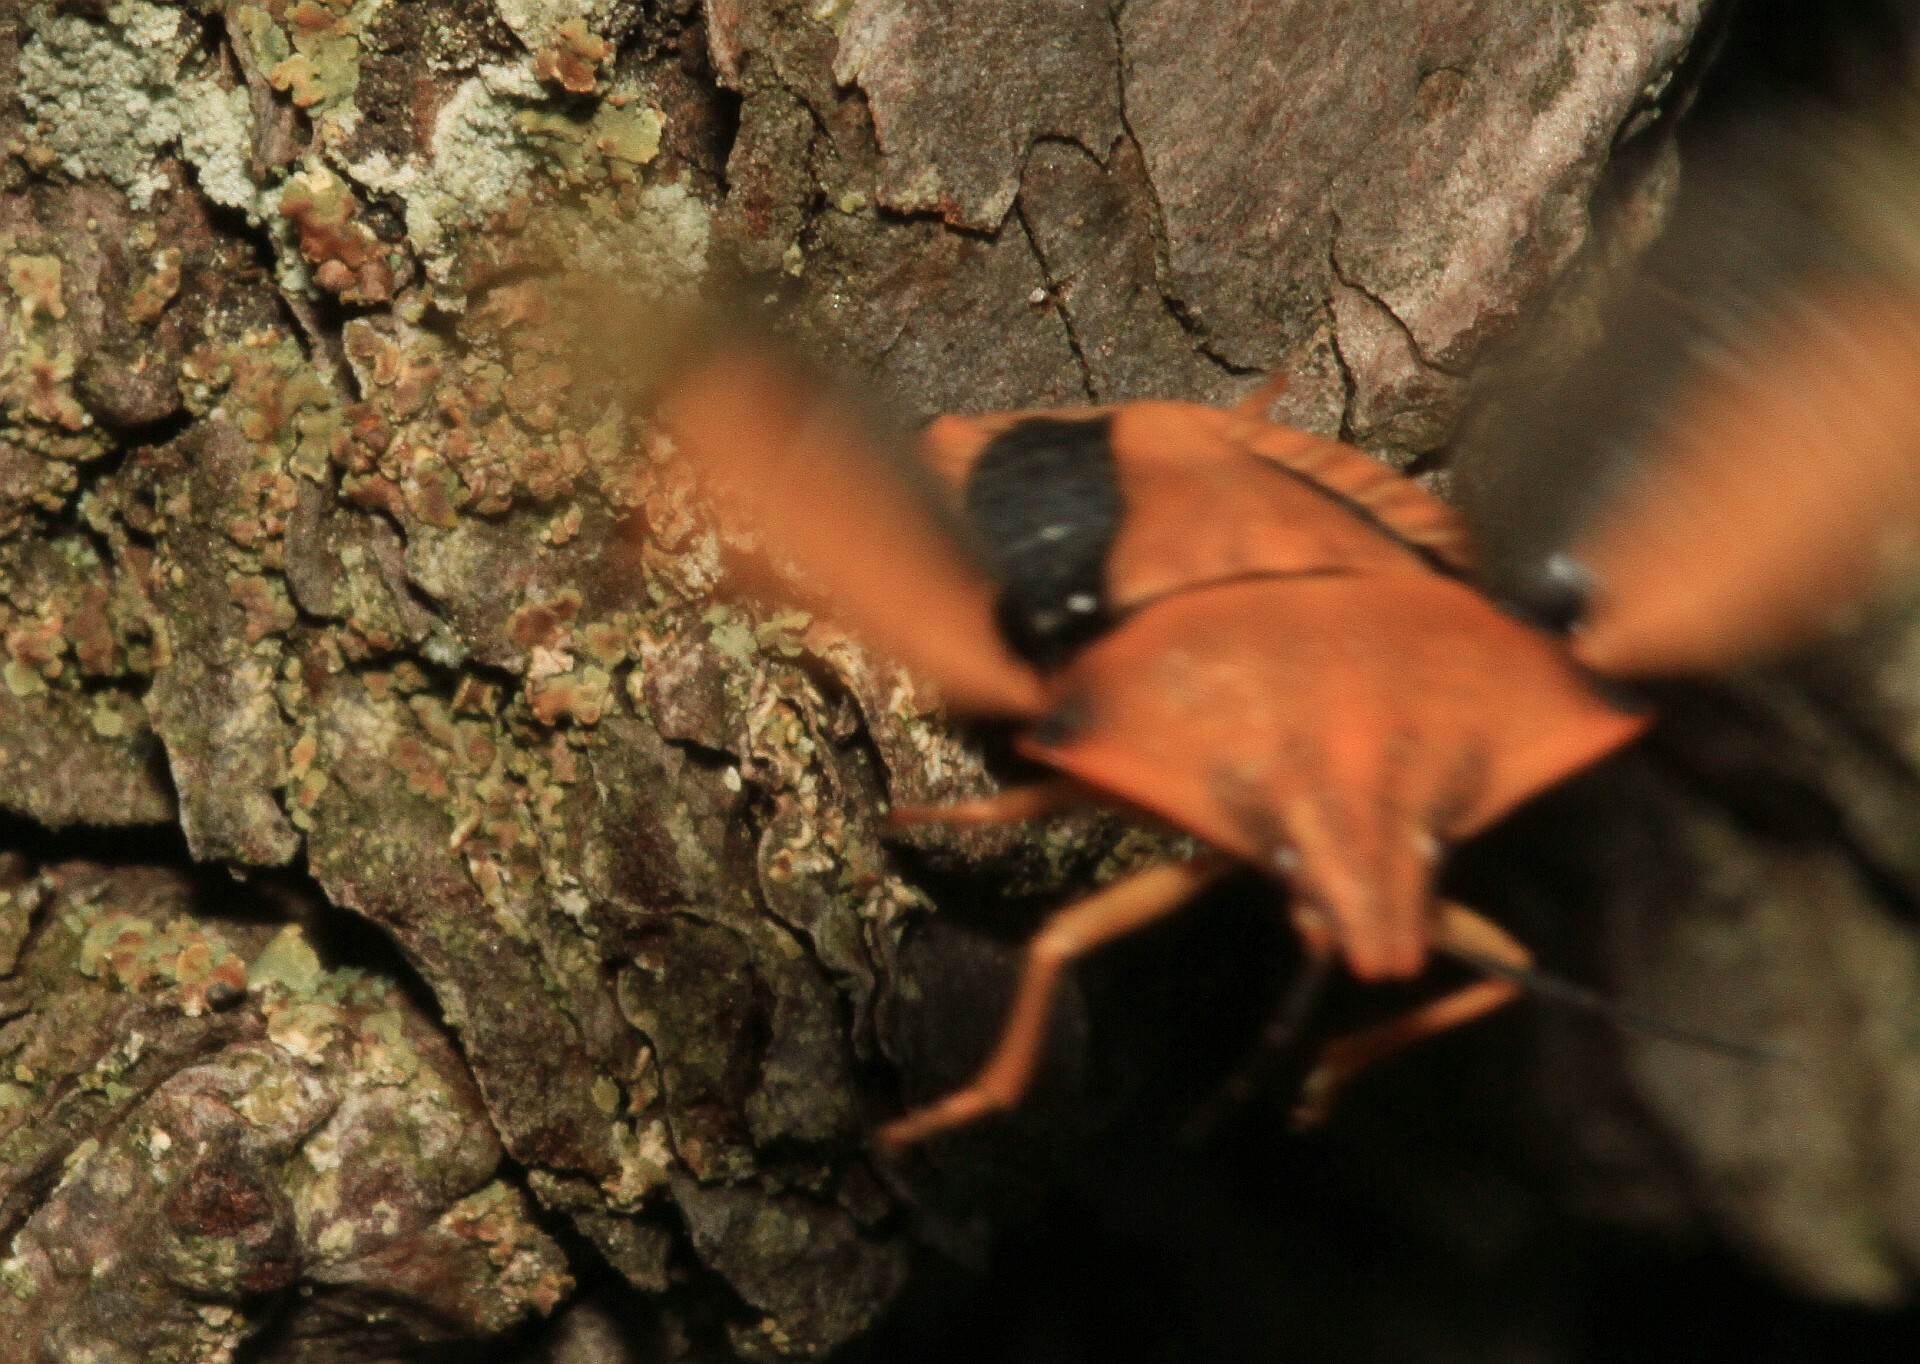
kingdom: Animalia
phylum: Arthropoda
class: Insecta
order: Hemiptera
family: Pentatomidae
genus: Carpocoris
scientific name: Carpocoris fuscispinus
